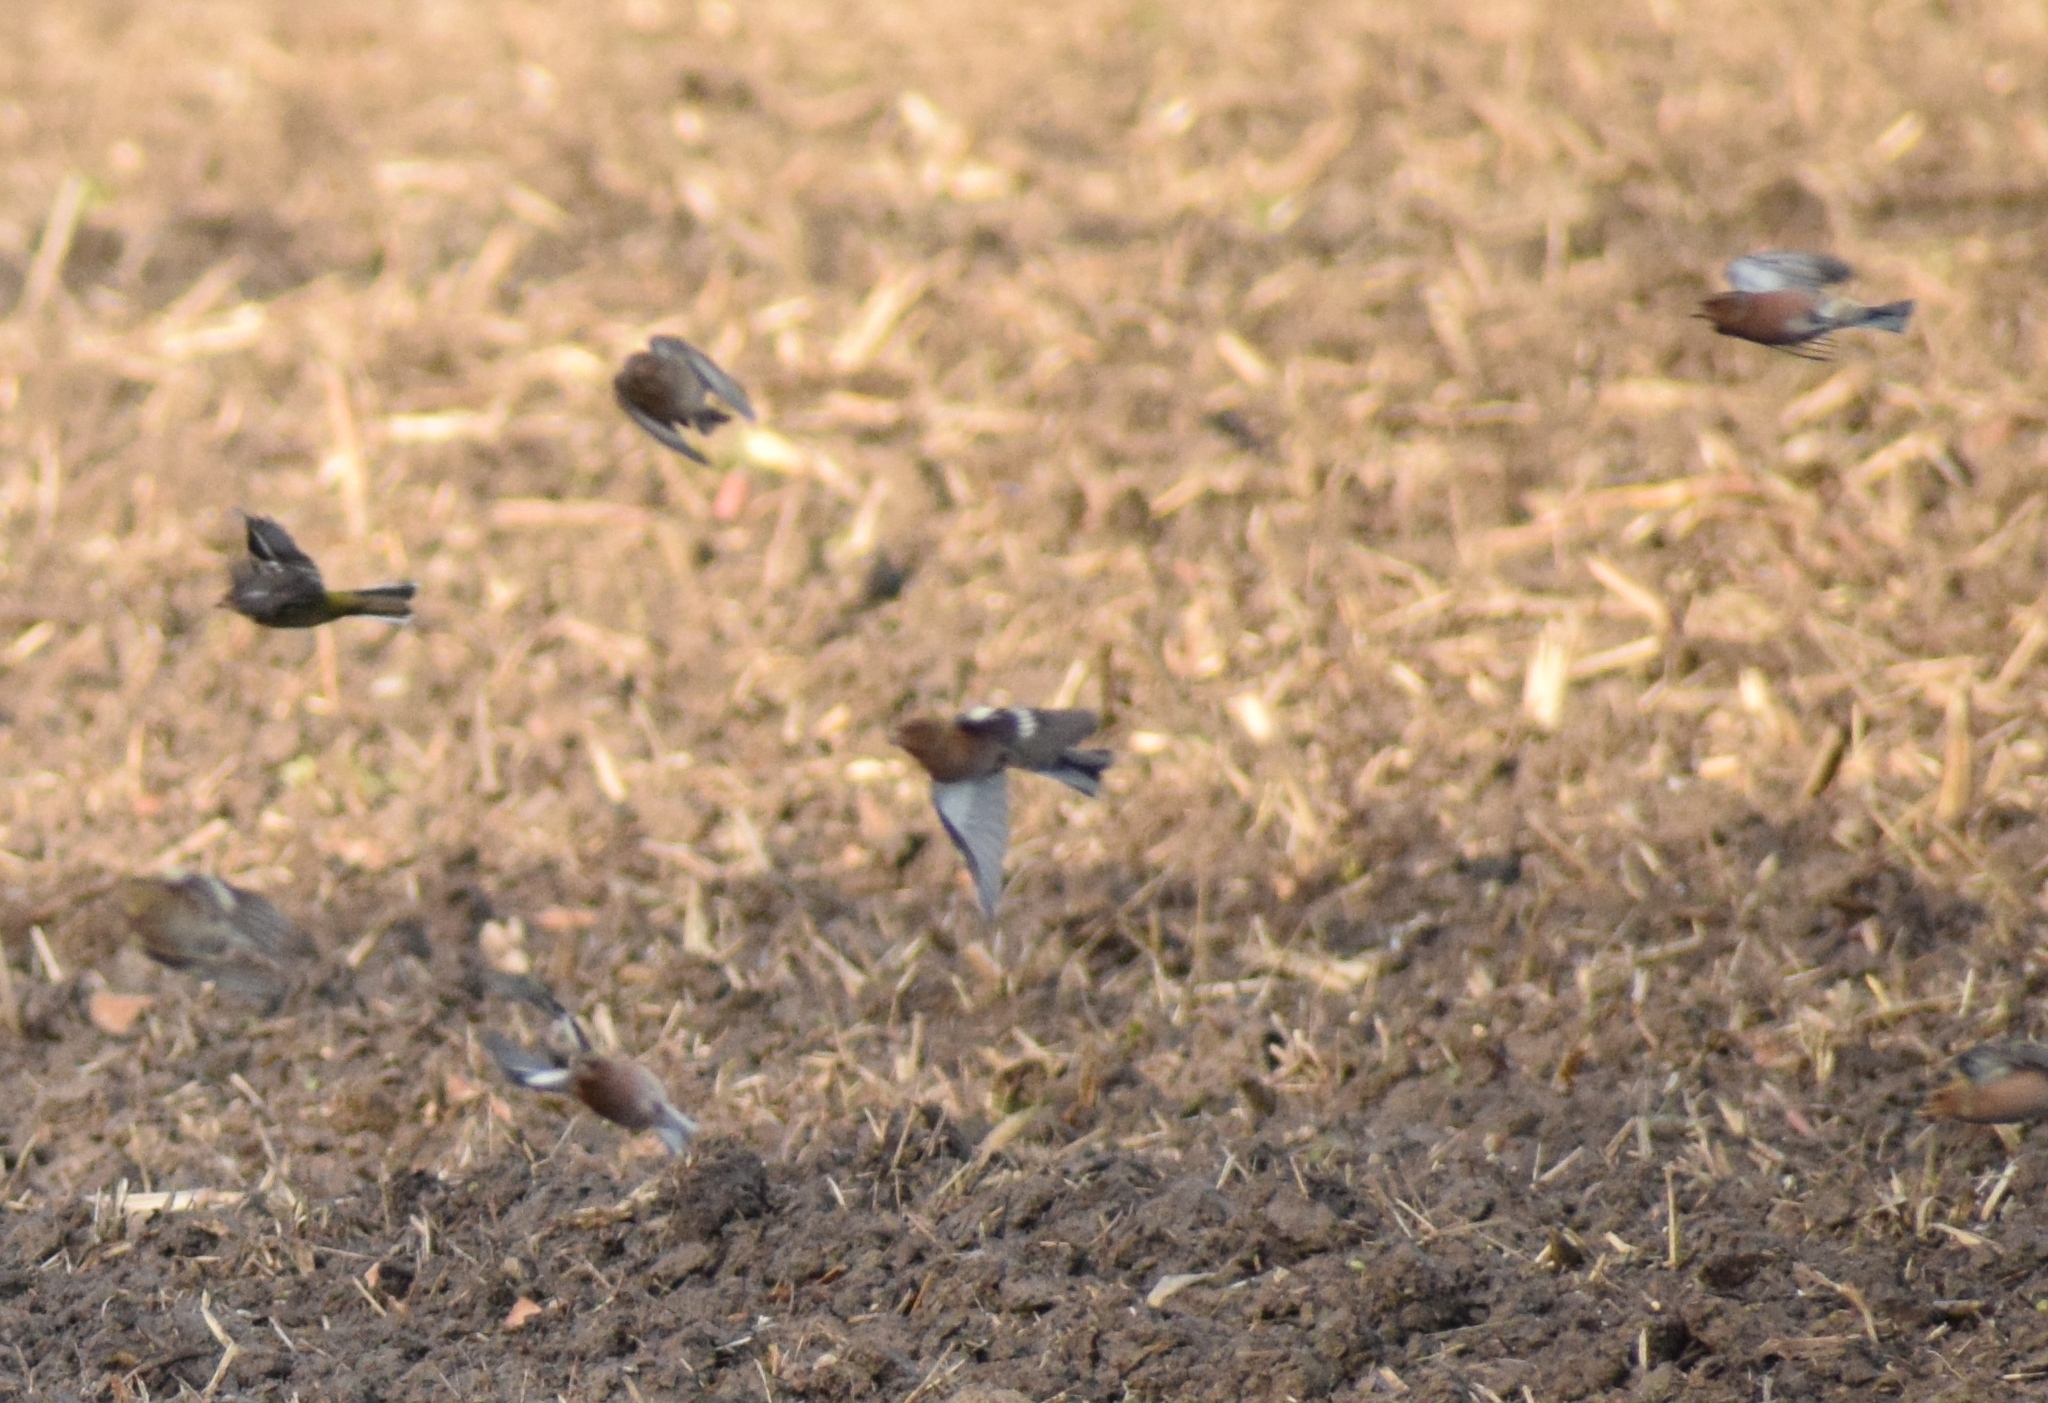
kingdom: Animalia
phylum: Chordata
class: Aves
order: Passeriformes
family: Fringillidae
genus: Fringilla
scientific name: Fringilla coelebs
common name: Common chaffinch
